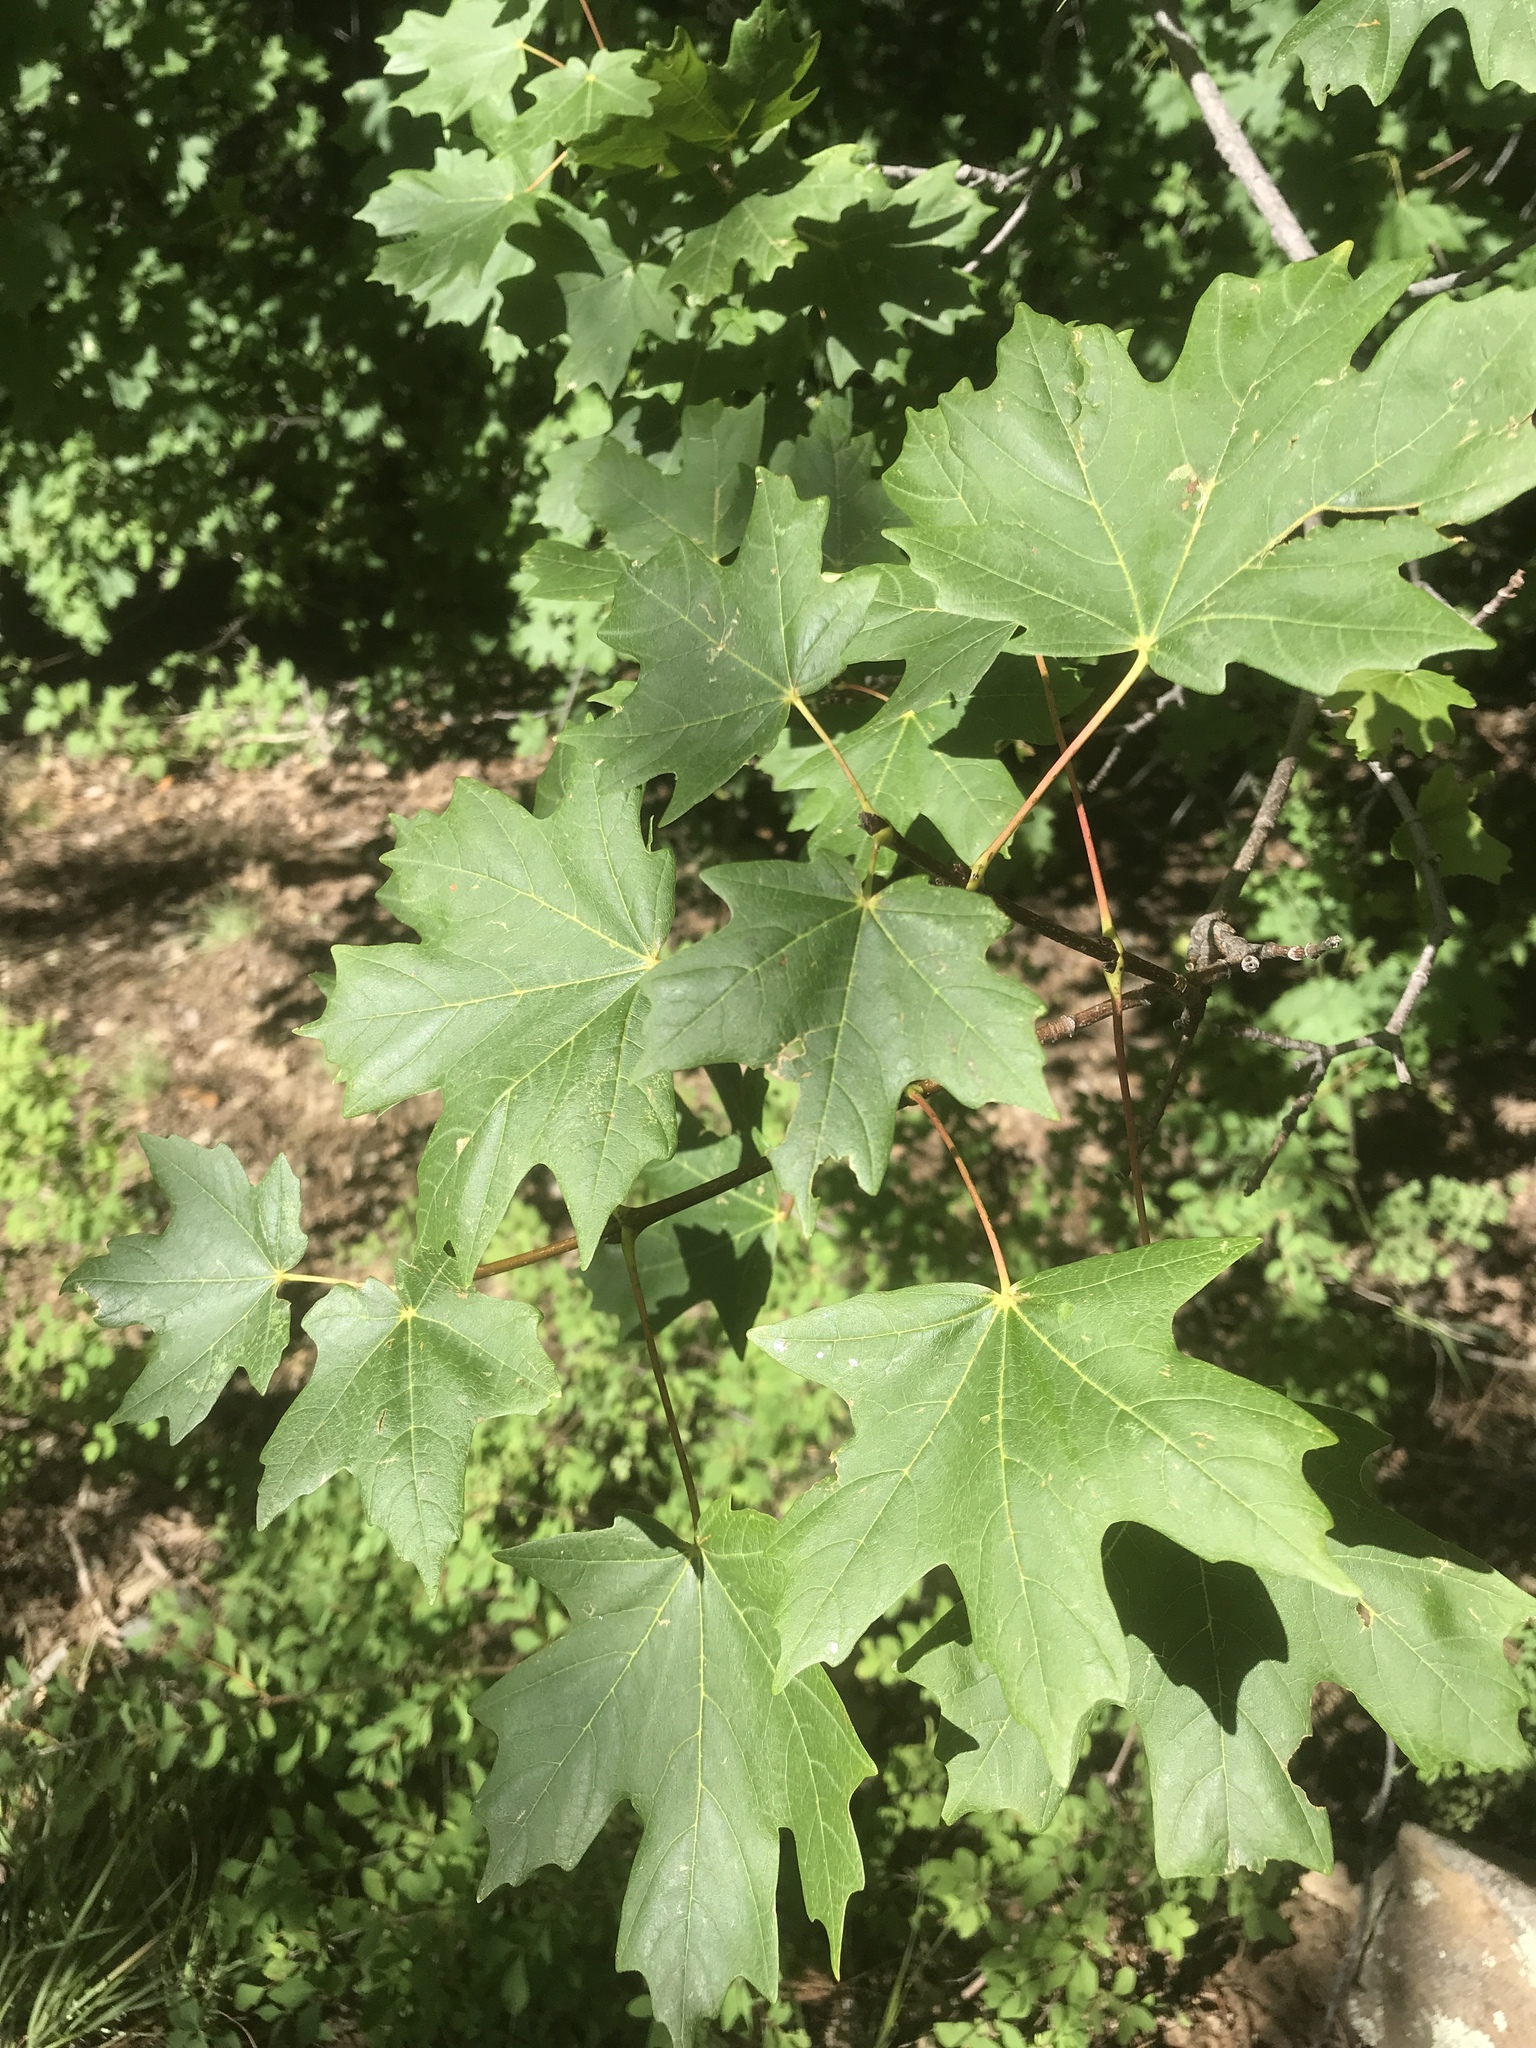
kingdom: Plantae
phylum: Tracheophyta
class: Magnoliopsida
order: Sapindales
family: Sapindaceae
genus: Acer
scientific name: Acer grandidentatum
